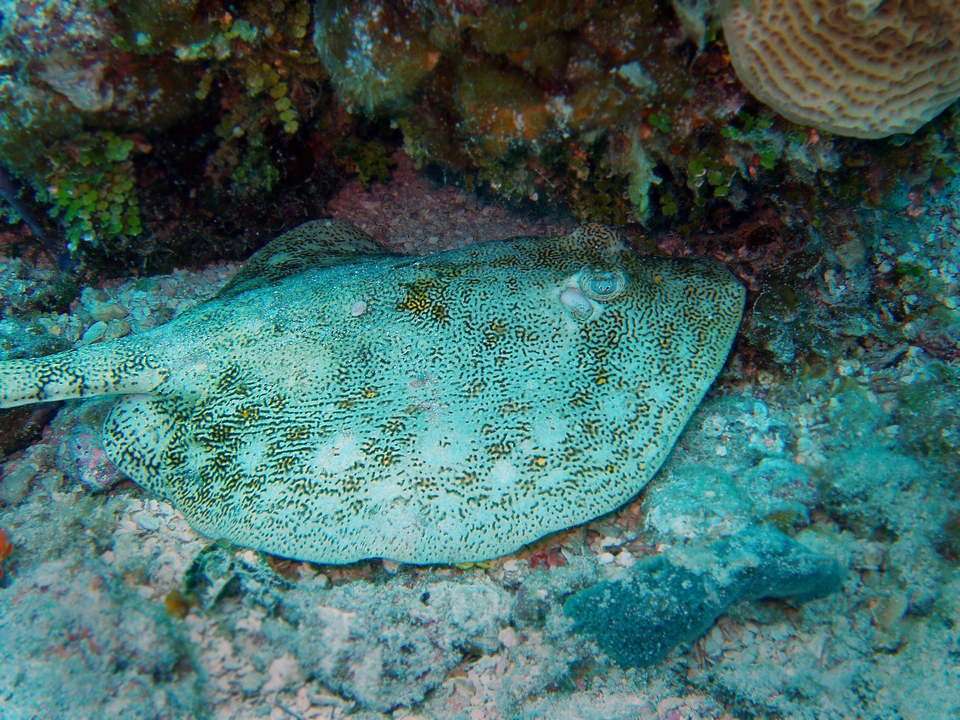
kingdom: Animalia
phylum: Chordata
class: Elasmobranchii
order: Myliobatiformes
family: Urotrygonidae
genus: Urobatis
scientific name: Urobatis jamaicensis
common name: Yellow stingray
